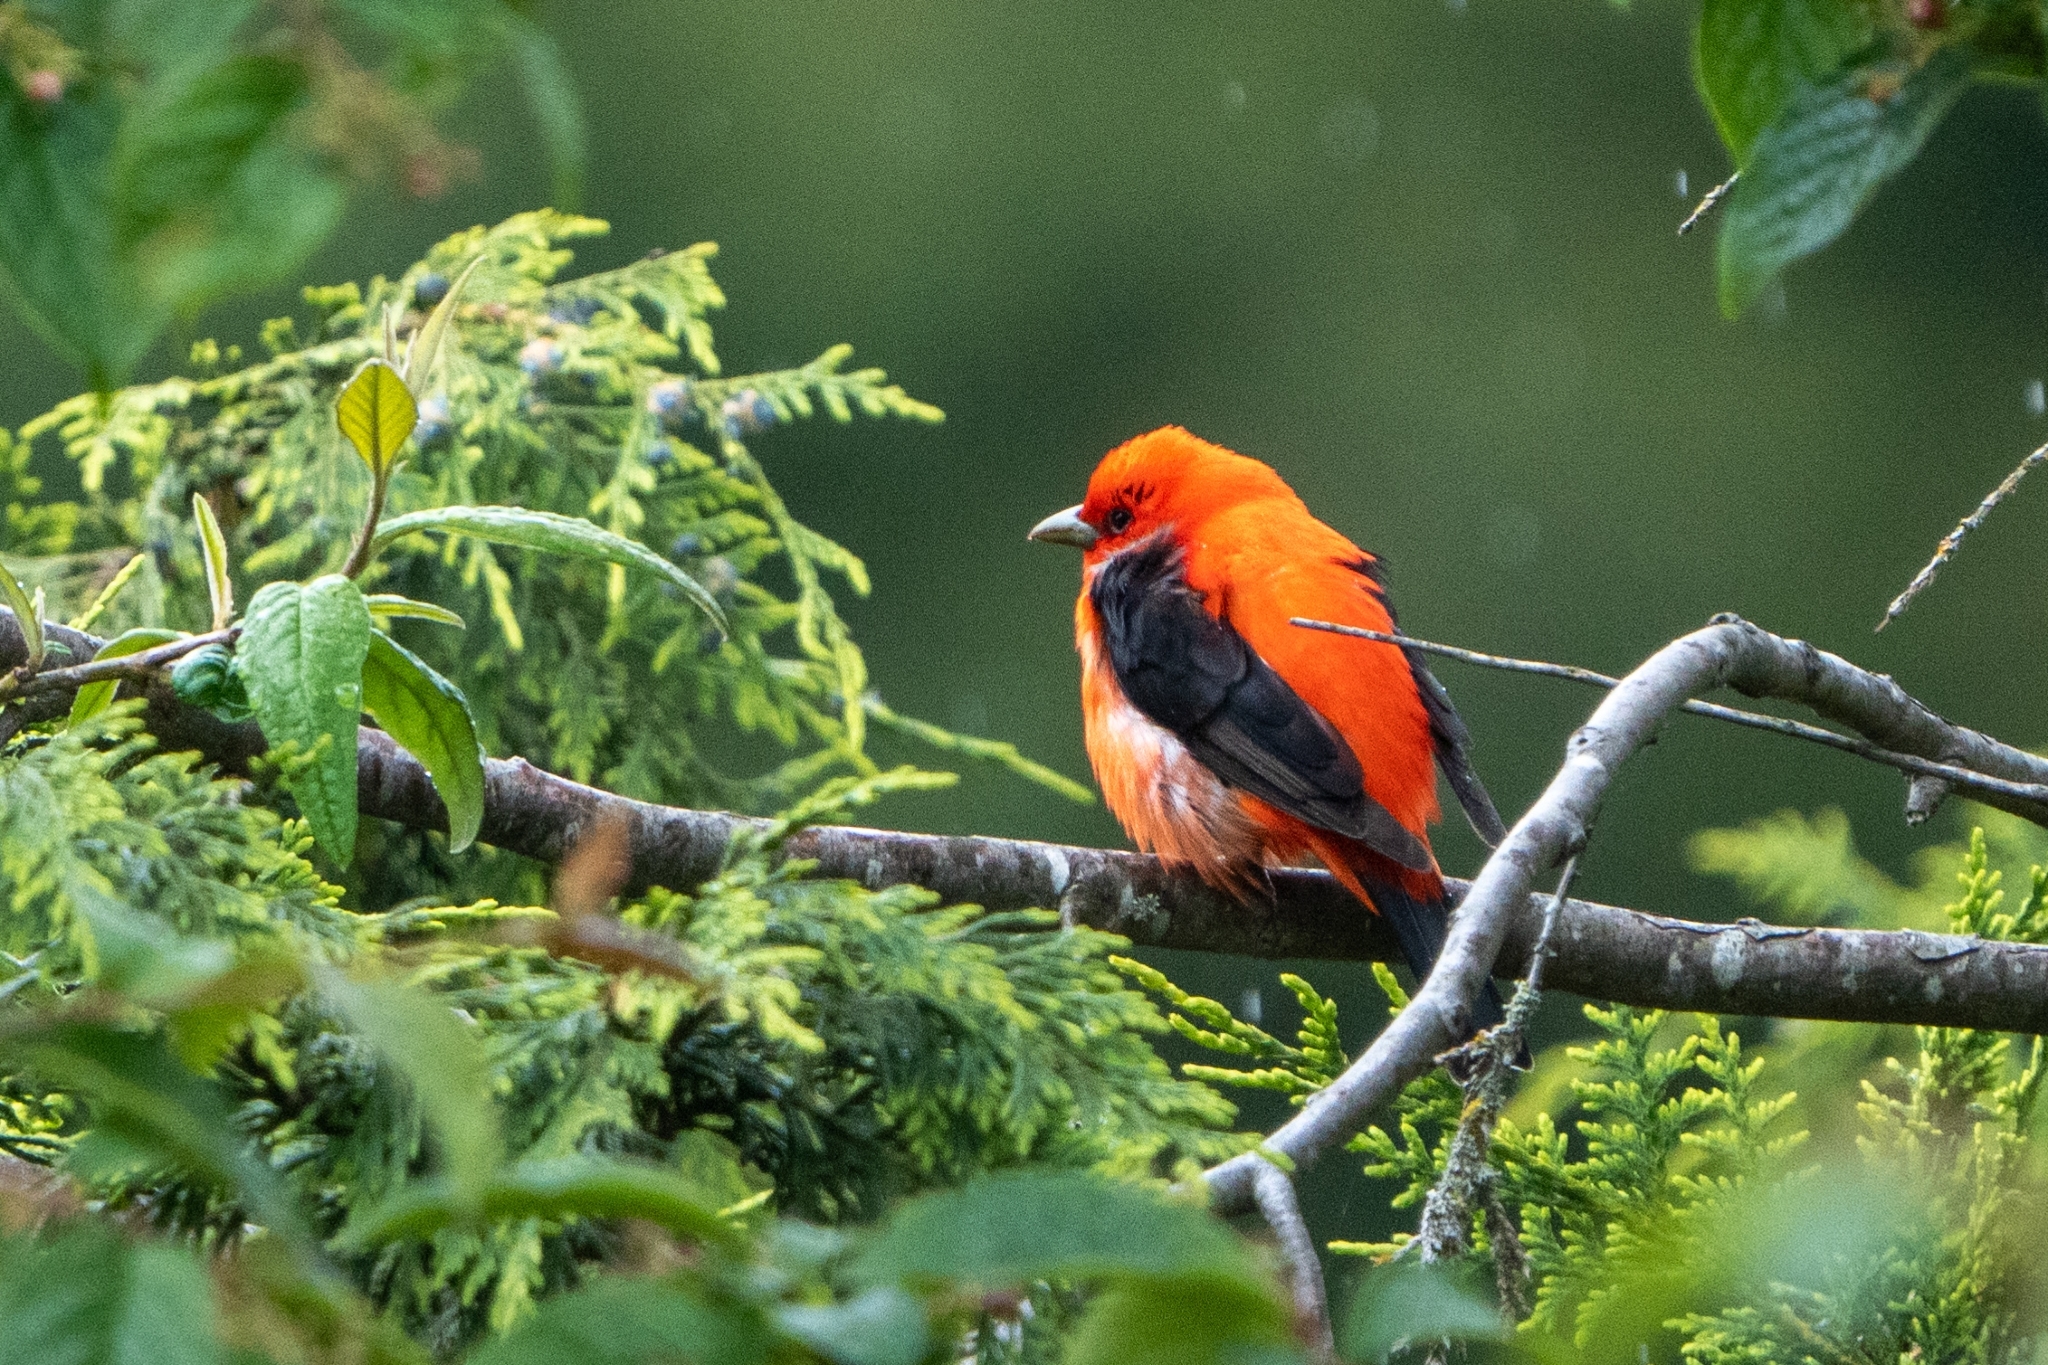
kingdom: Animalia
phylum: Chordata
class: Aves
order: Passeriformes
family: Cardinalidae
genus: Piranga
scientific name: Piranga olivacea
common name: Scarlet tanager
